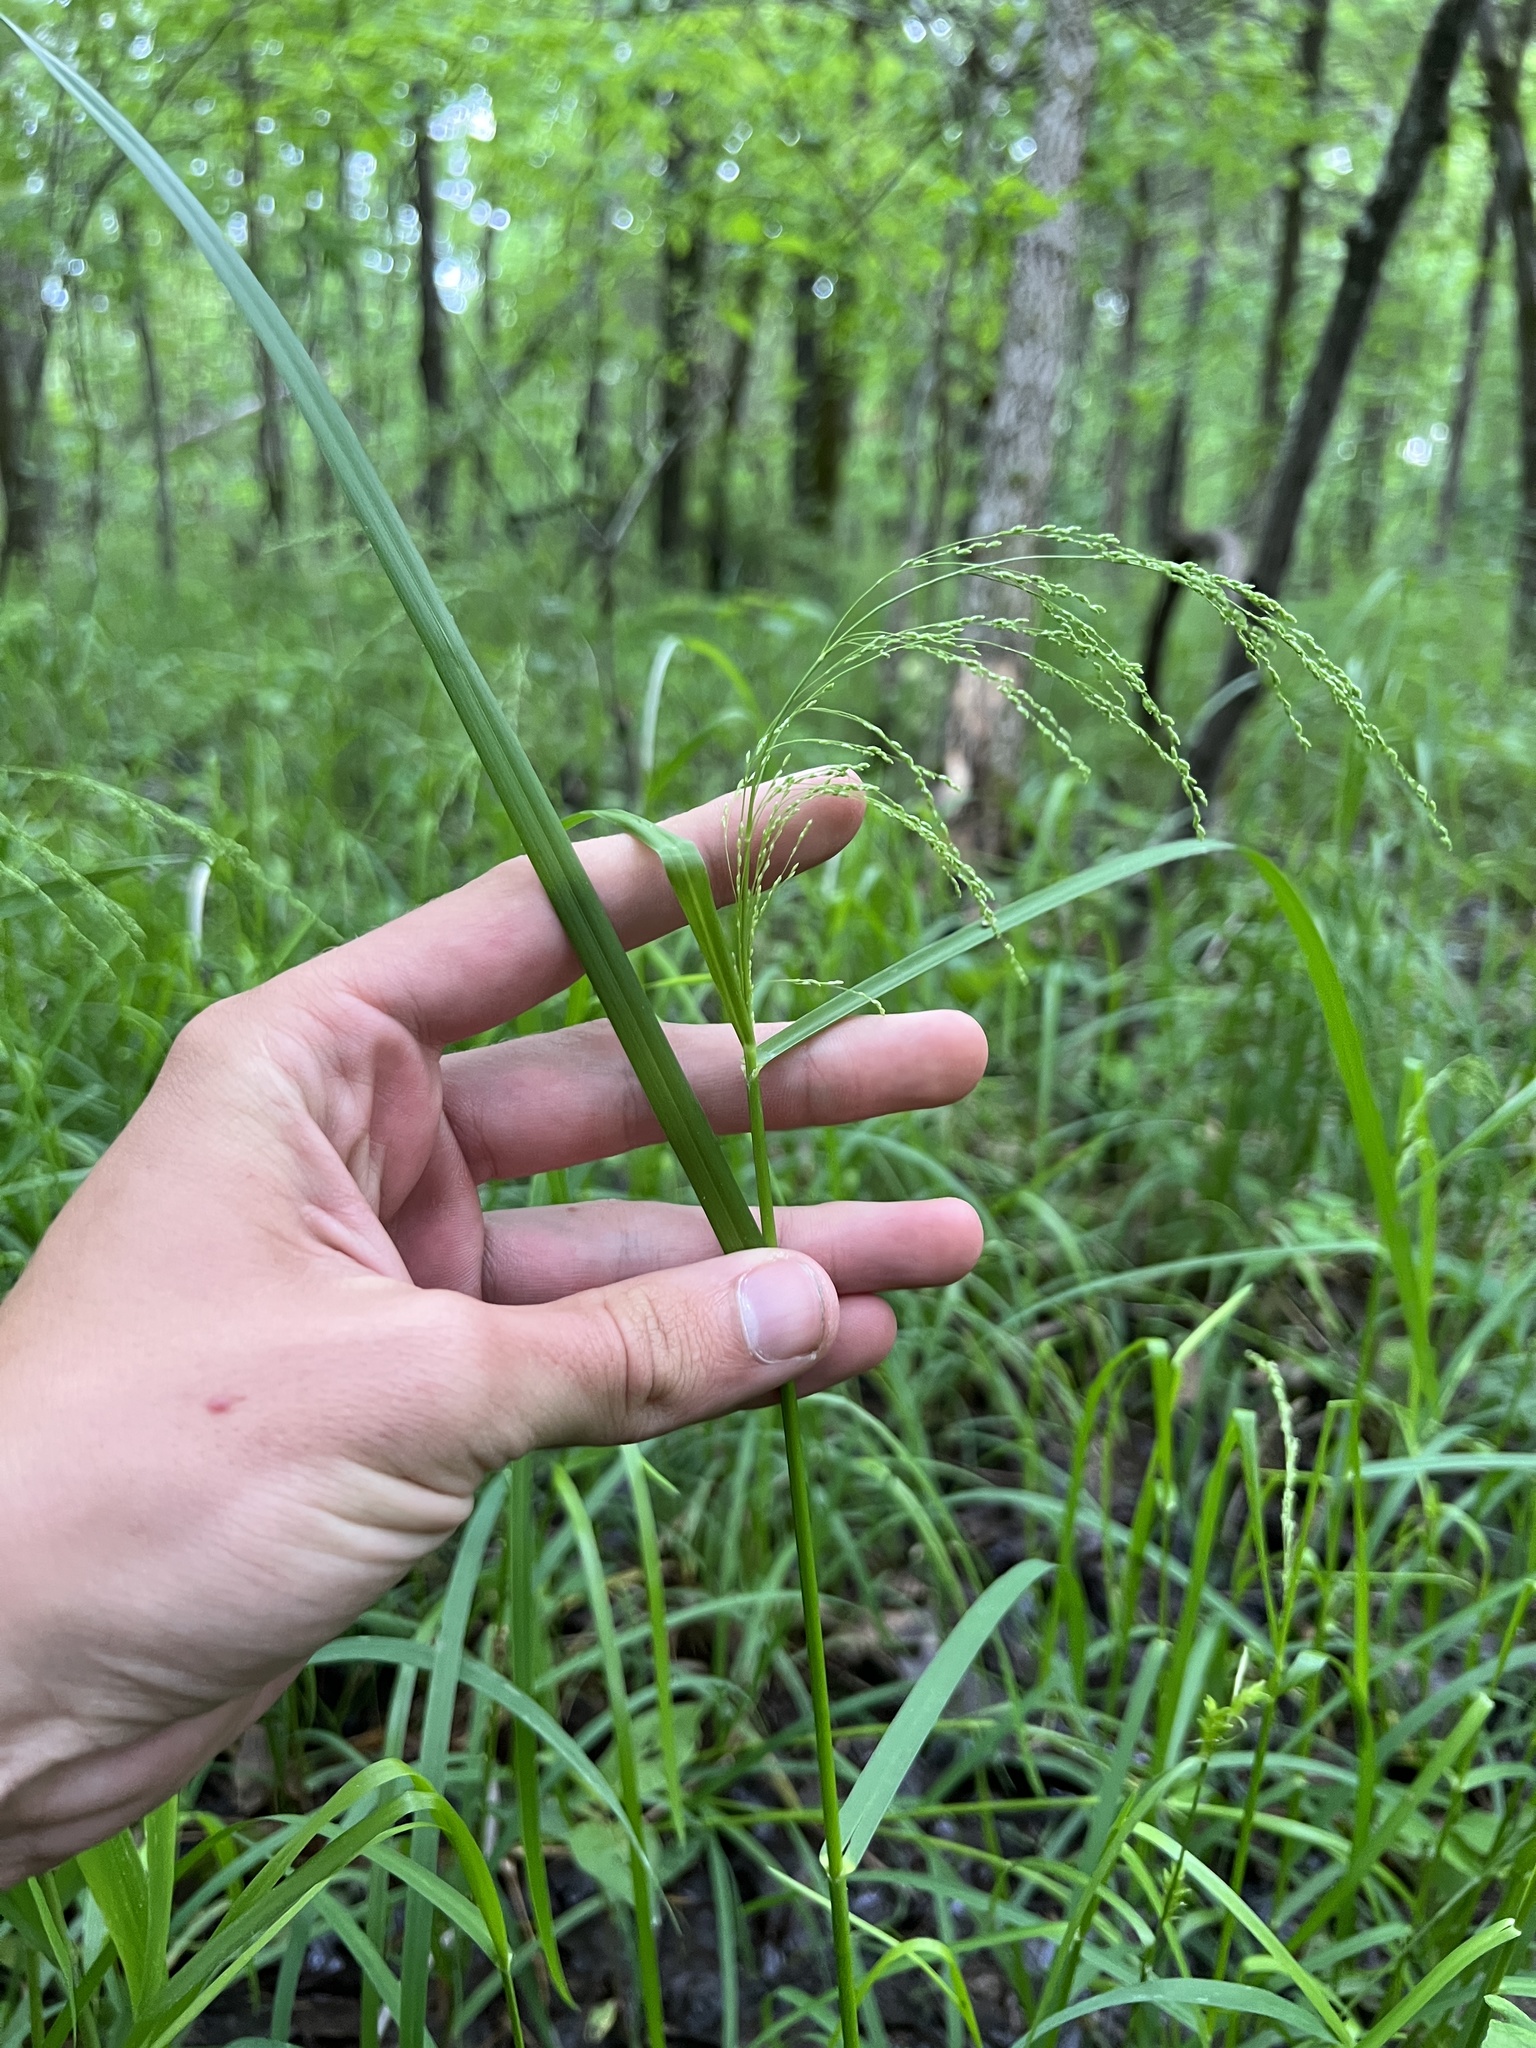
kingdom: Plantae
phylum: Tracheophyta
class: Liliopsida
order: Poales
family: Poaceae
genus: Glyceria
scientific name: Glyceria striata
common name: Fowl manna grass
